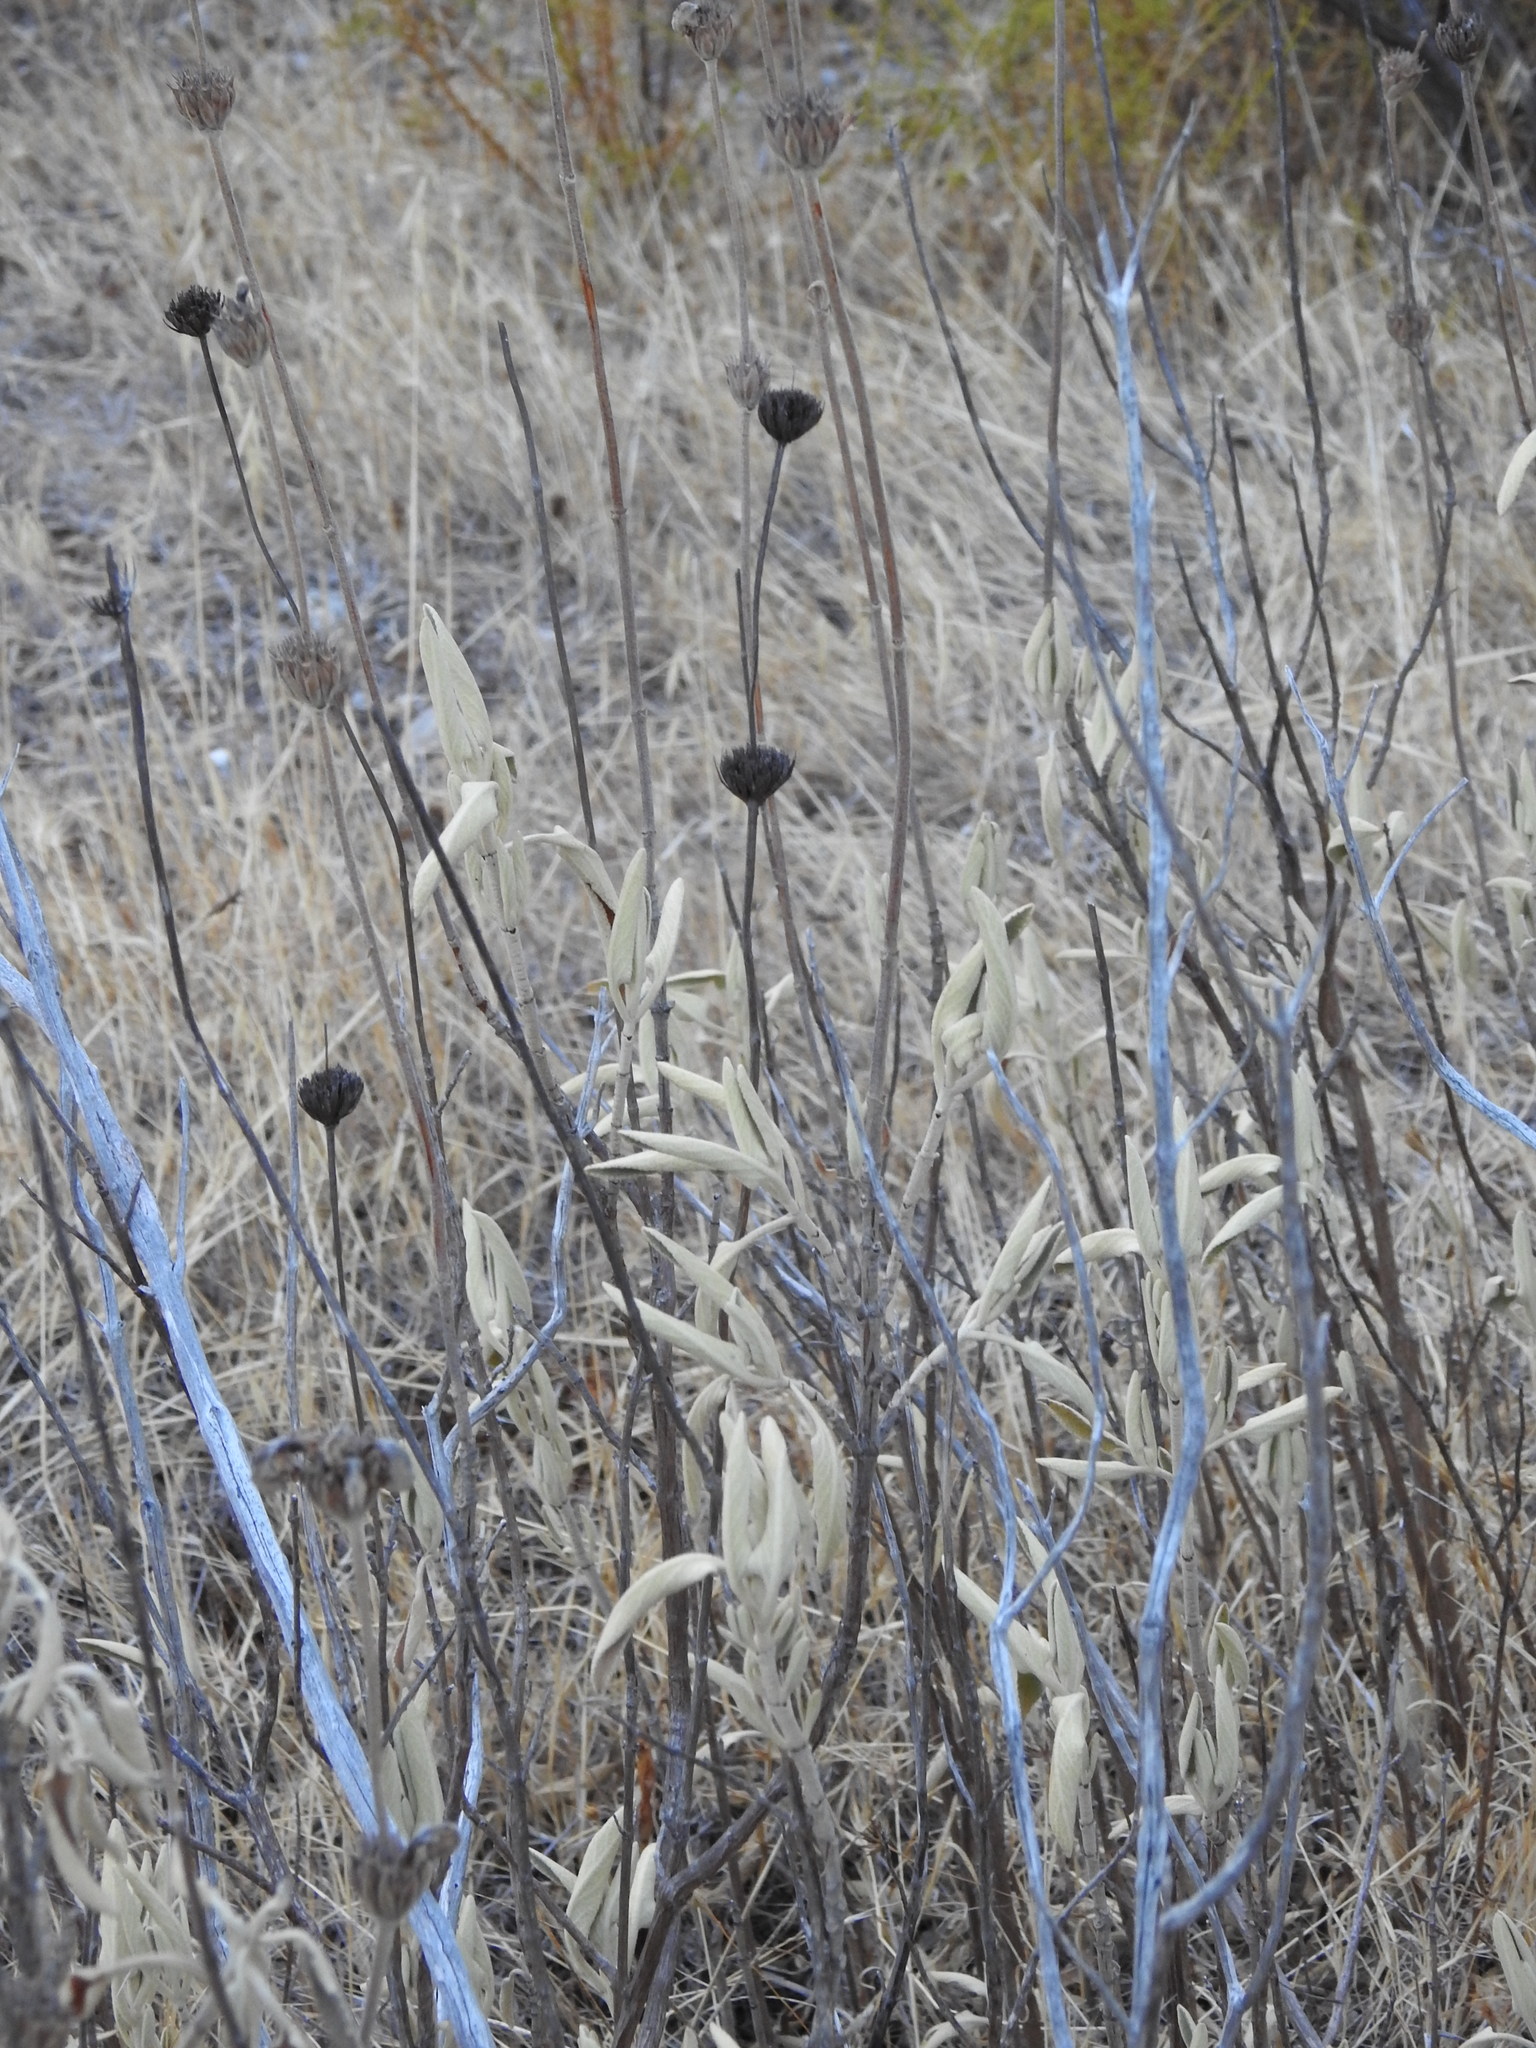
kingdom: Plantae
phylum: Tracheophyta
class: Magnoliopsida
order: Lamiales
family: Lamiaceae
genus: Phlomis
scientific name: Phlomis purpurea
